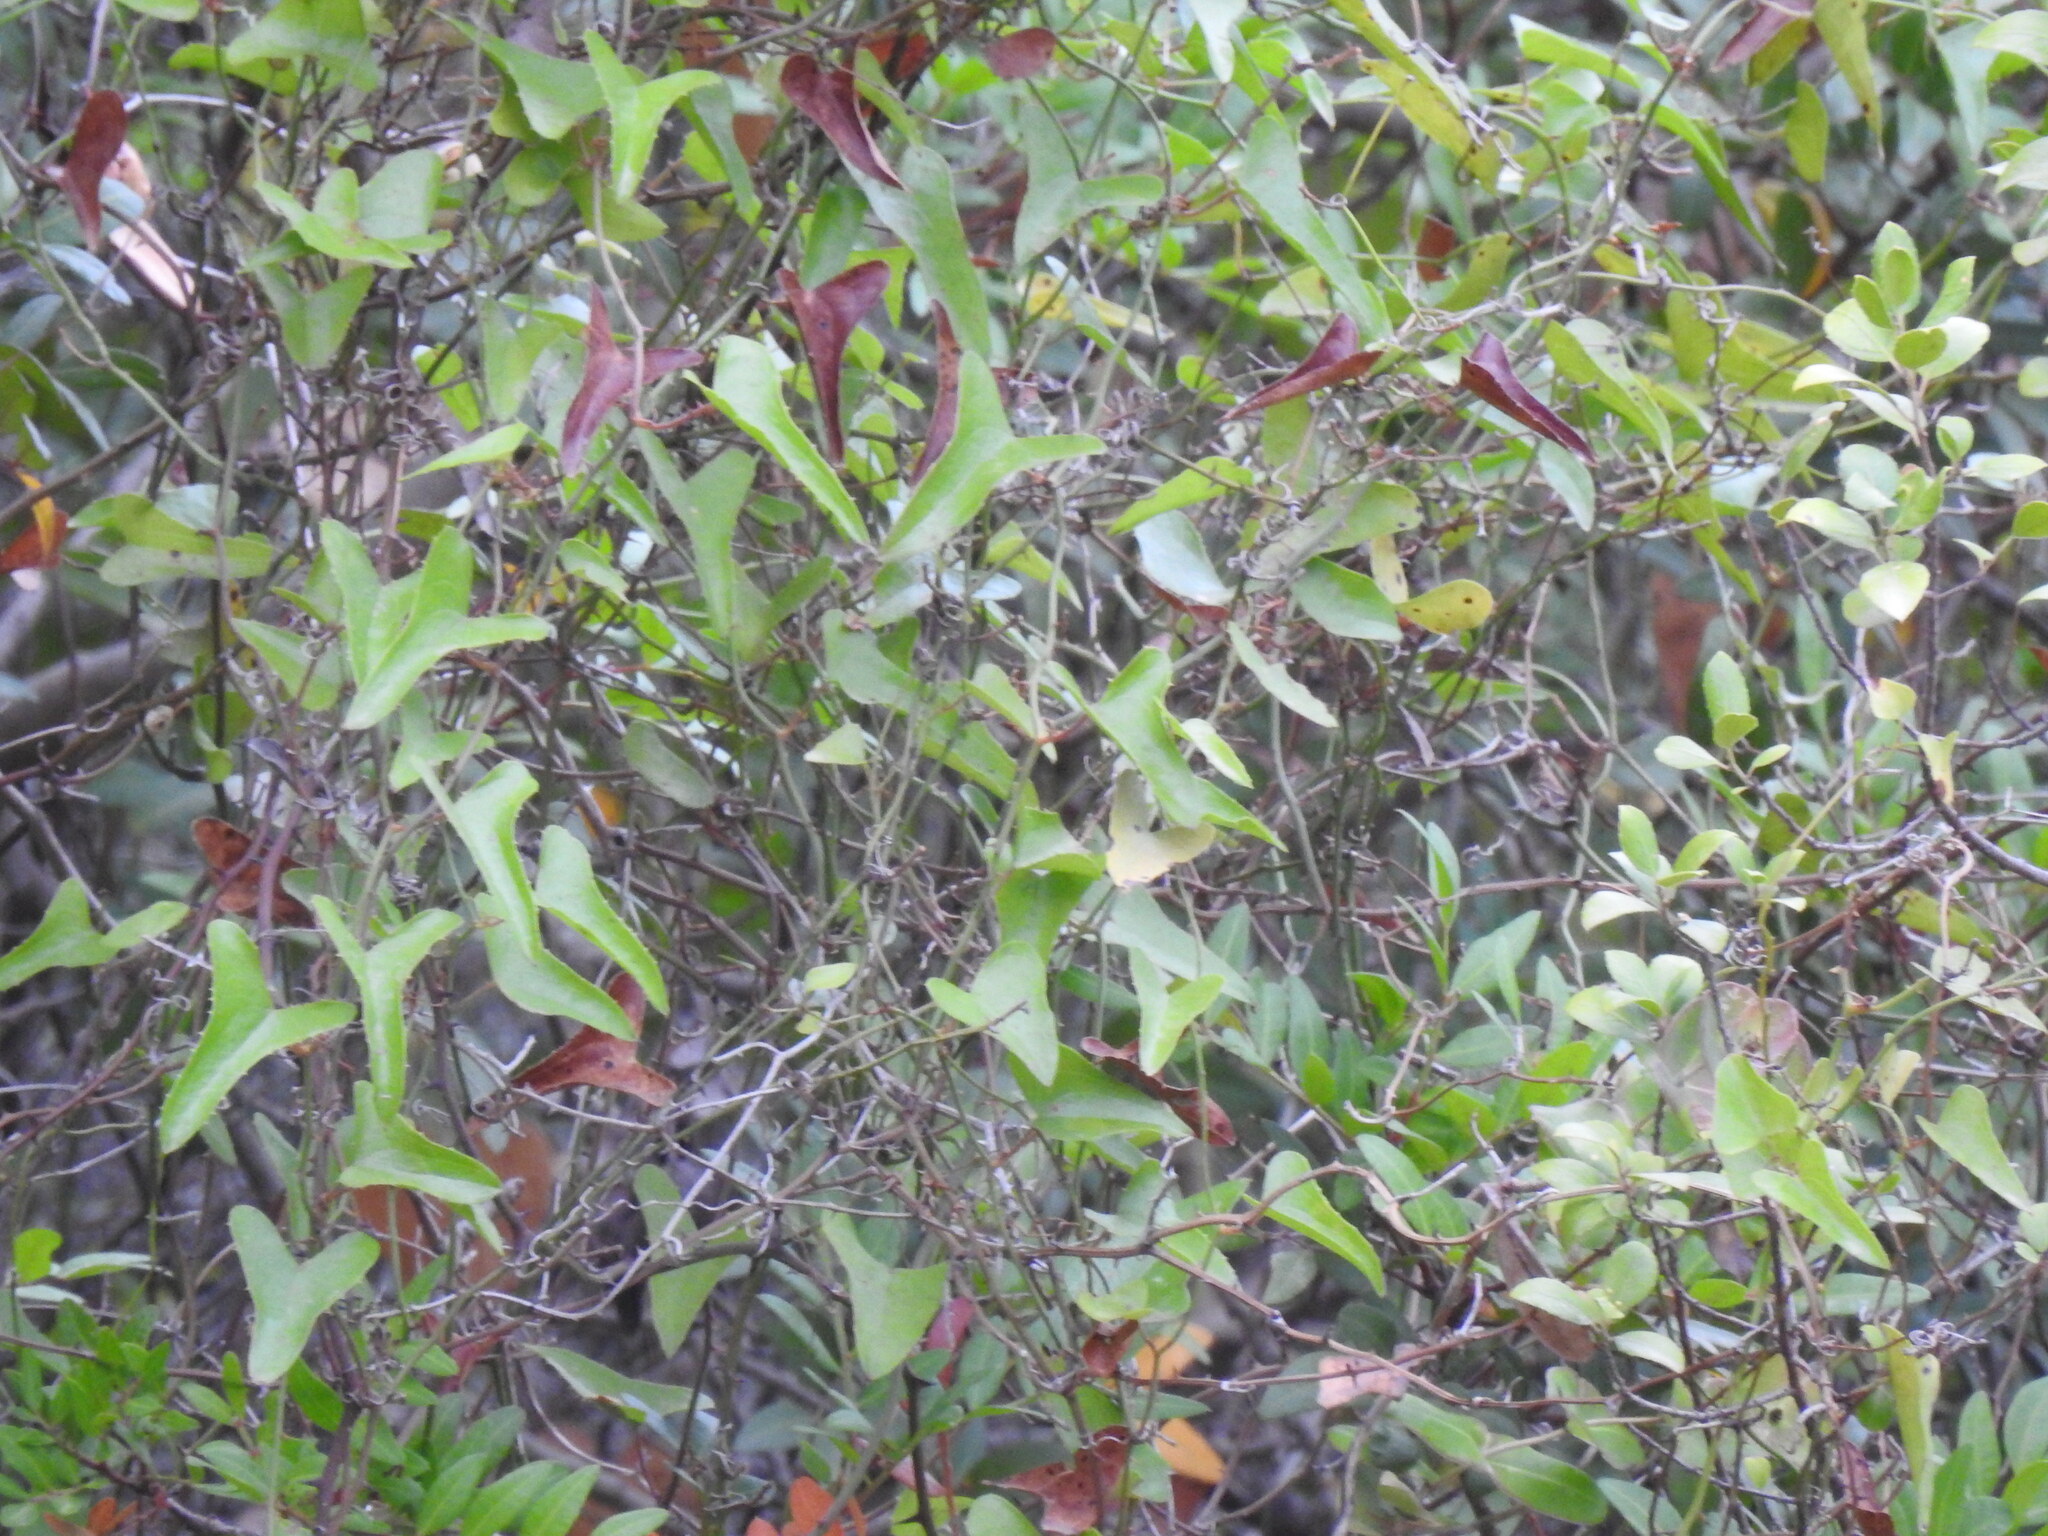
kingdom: Plantae
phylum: Tracheophyta
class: Liliopsida
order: Liliales
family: Smilacaceae
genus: Smilax
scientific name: Smilax aspera
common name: Common smilax
